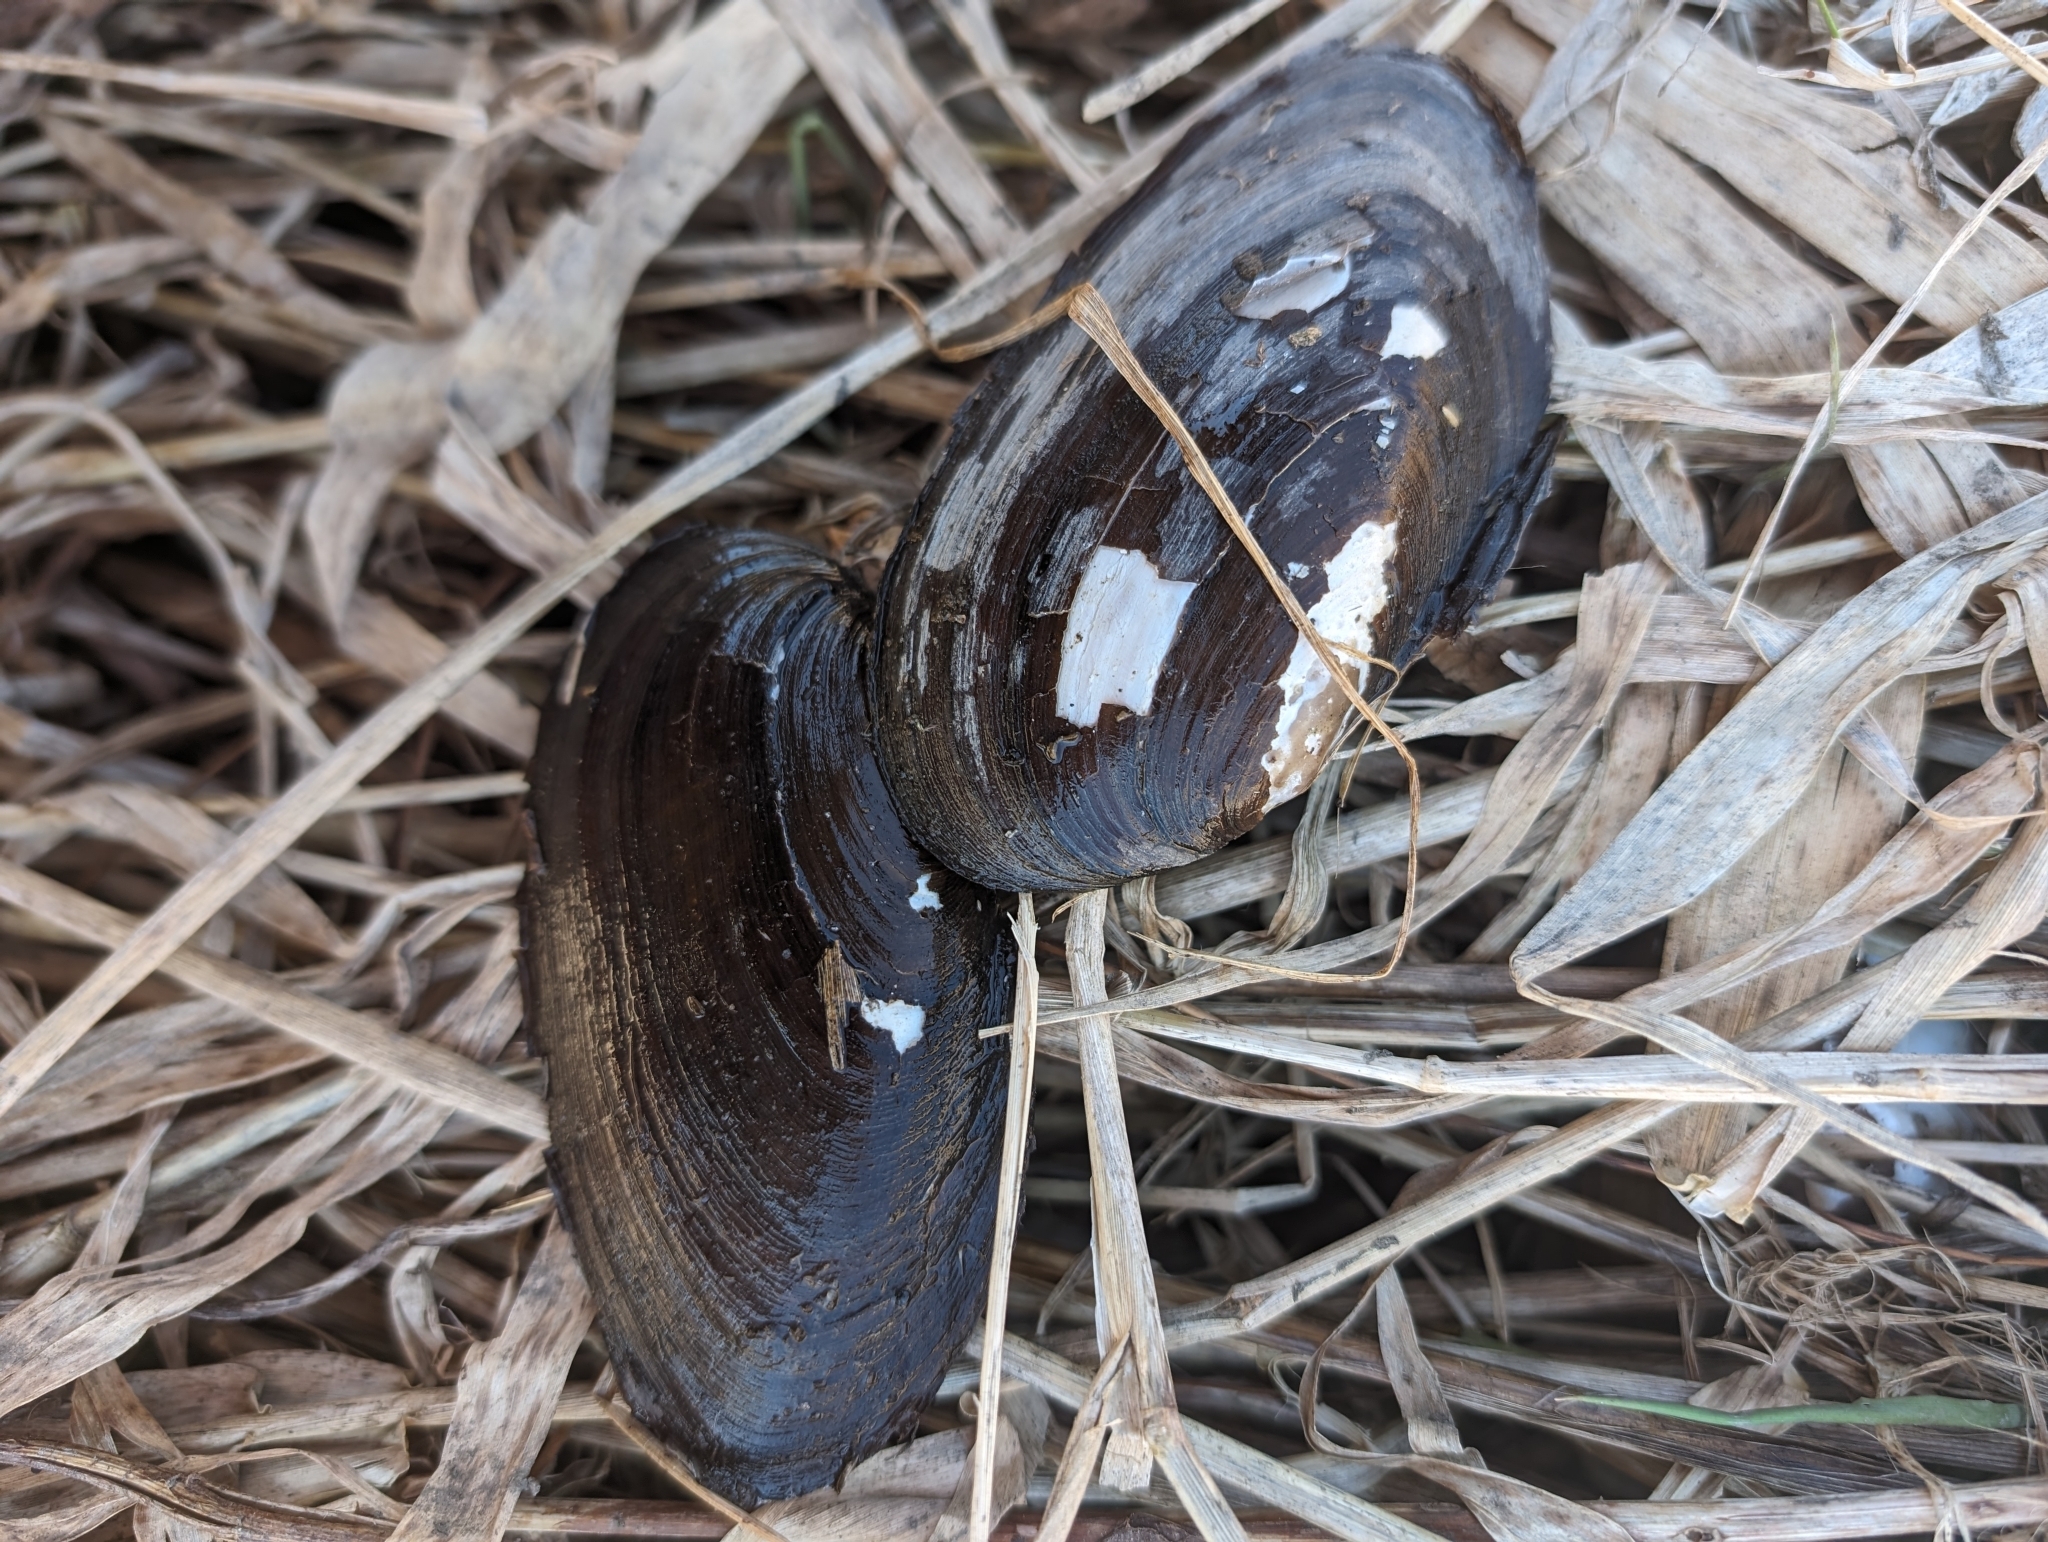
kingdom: Animalia
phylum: Mollusca
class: Bivalvia
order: Unionida
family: Unionidae
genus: Elliptio
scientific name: Elliptio complanata
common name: Eastern elliptio
